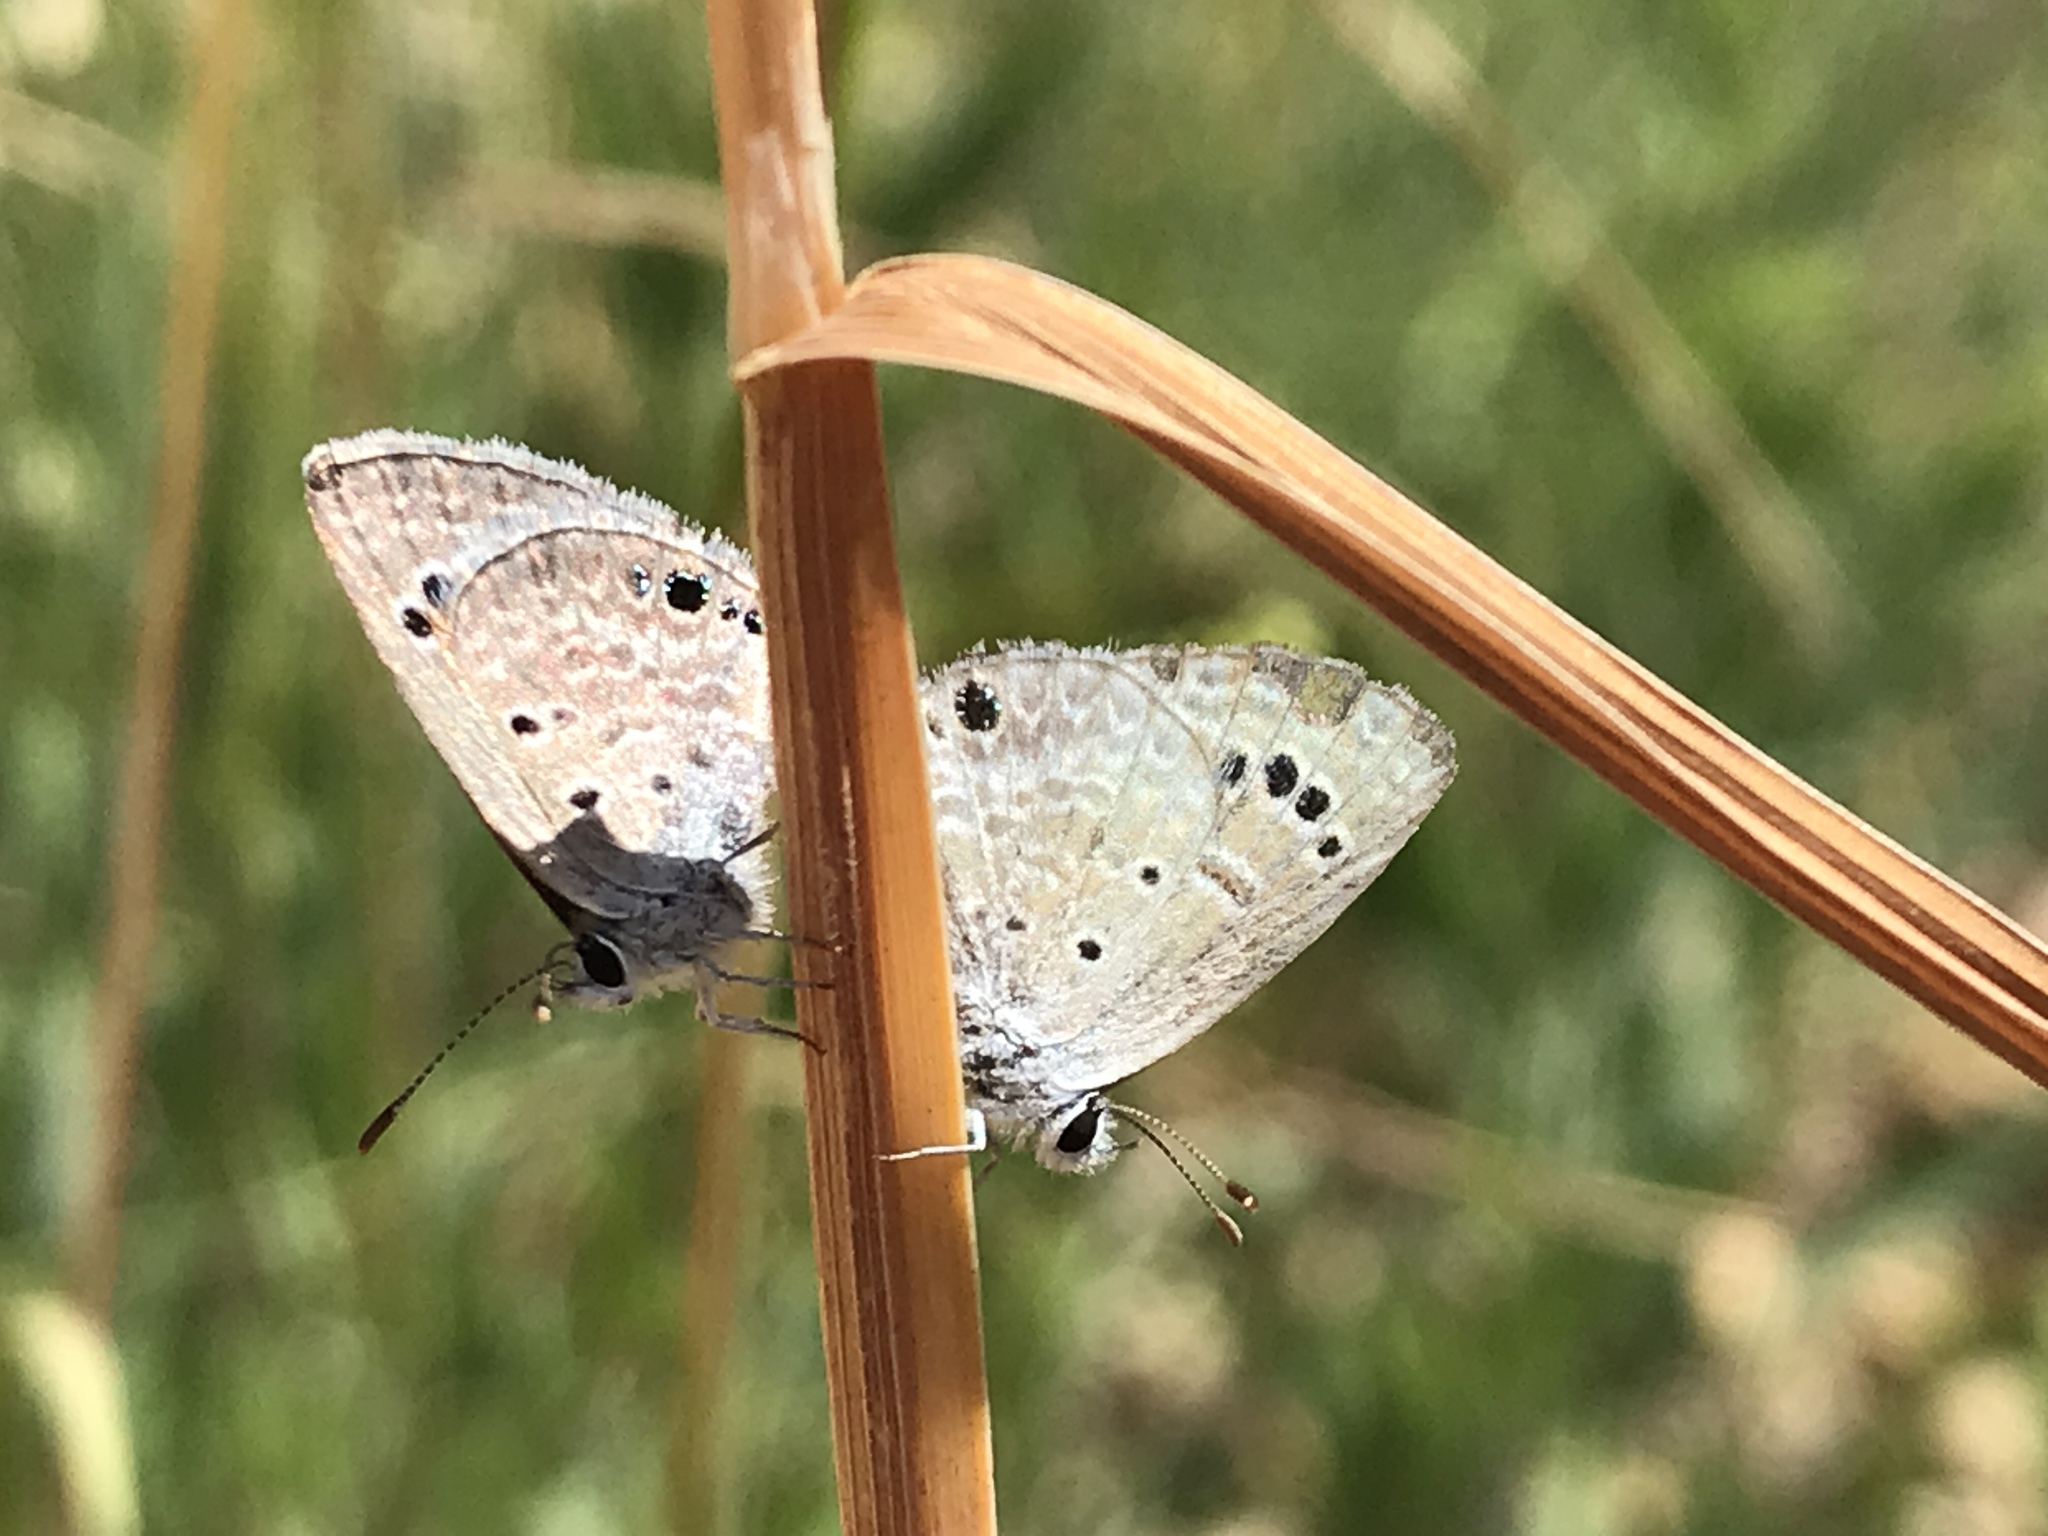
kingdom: Animalia
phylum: Arthropoda
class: Insecta
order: Lepidoptera
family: Lycaenidae
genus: Echinargus
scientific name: Echinargus isola
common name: Reakirt's blue
